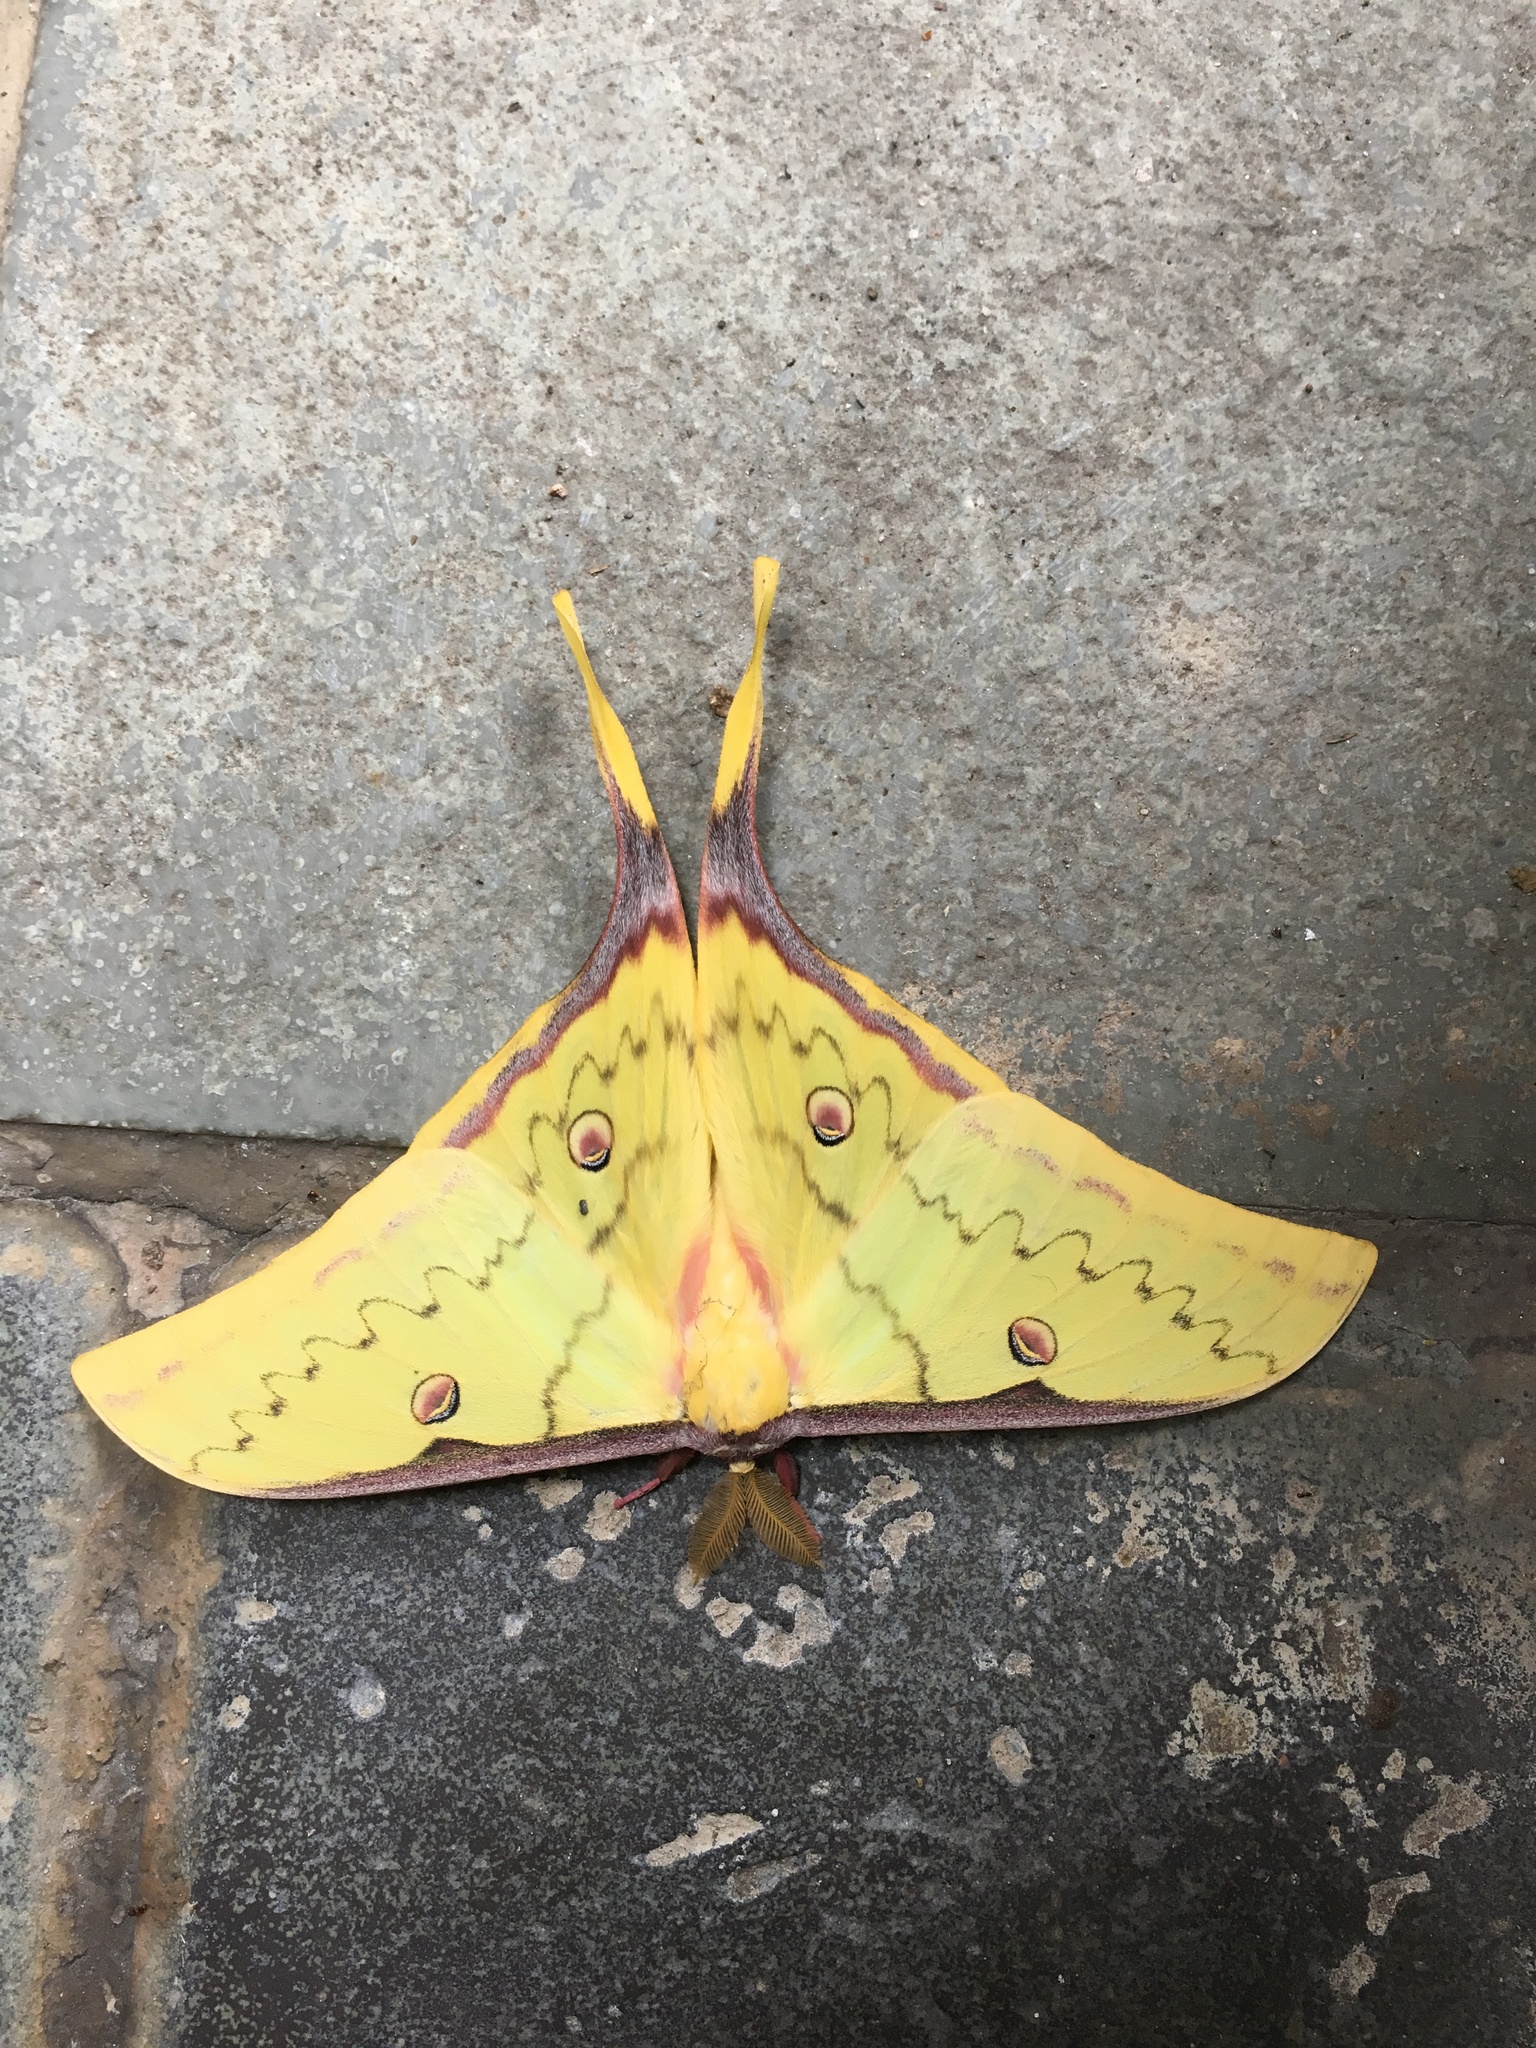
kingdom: Animalia
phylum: Arthropoda
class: Insecta
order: Lepidoptera
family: Saturniidae
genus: Actias
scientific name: Actias sinensis
